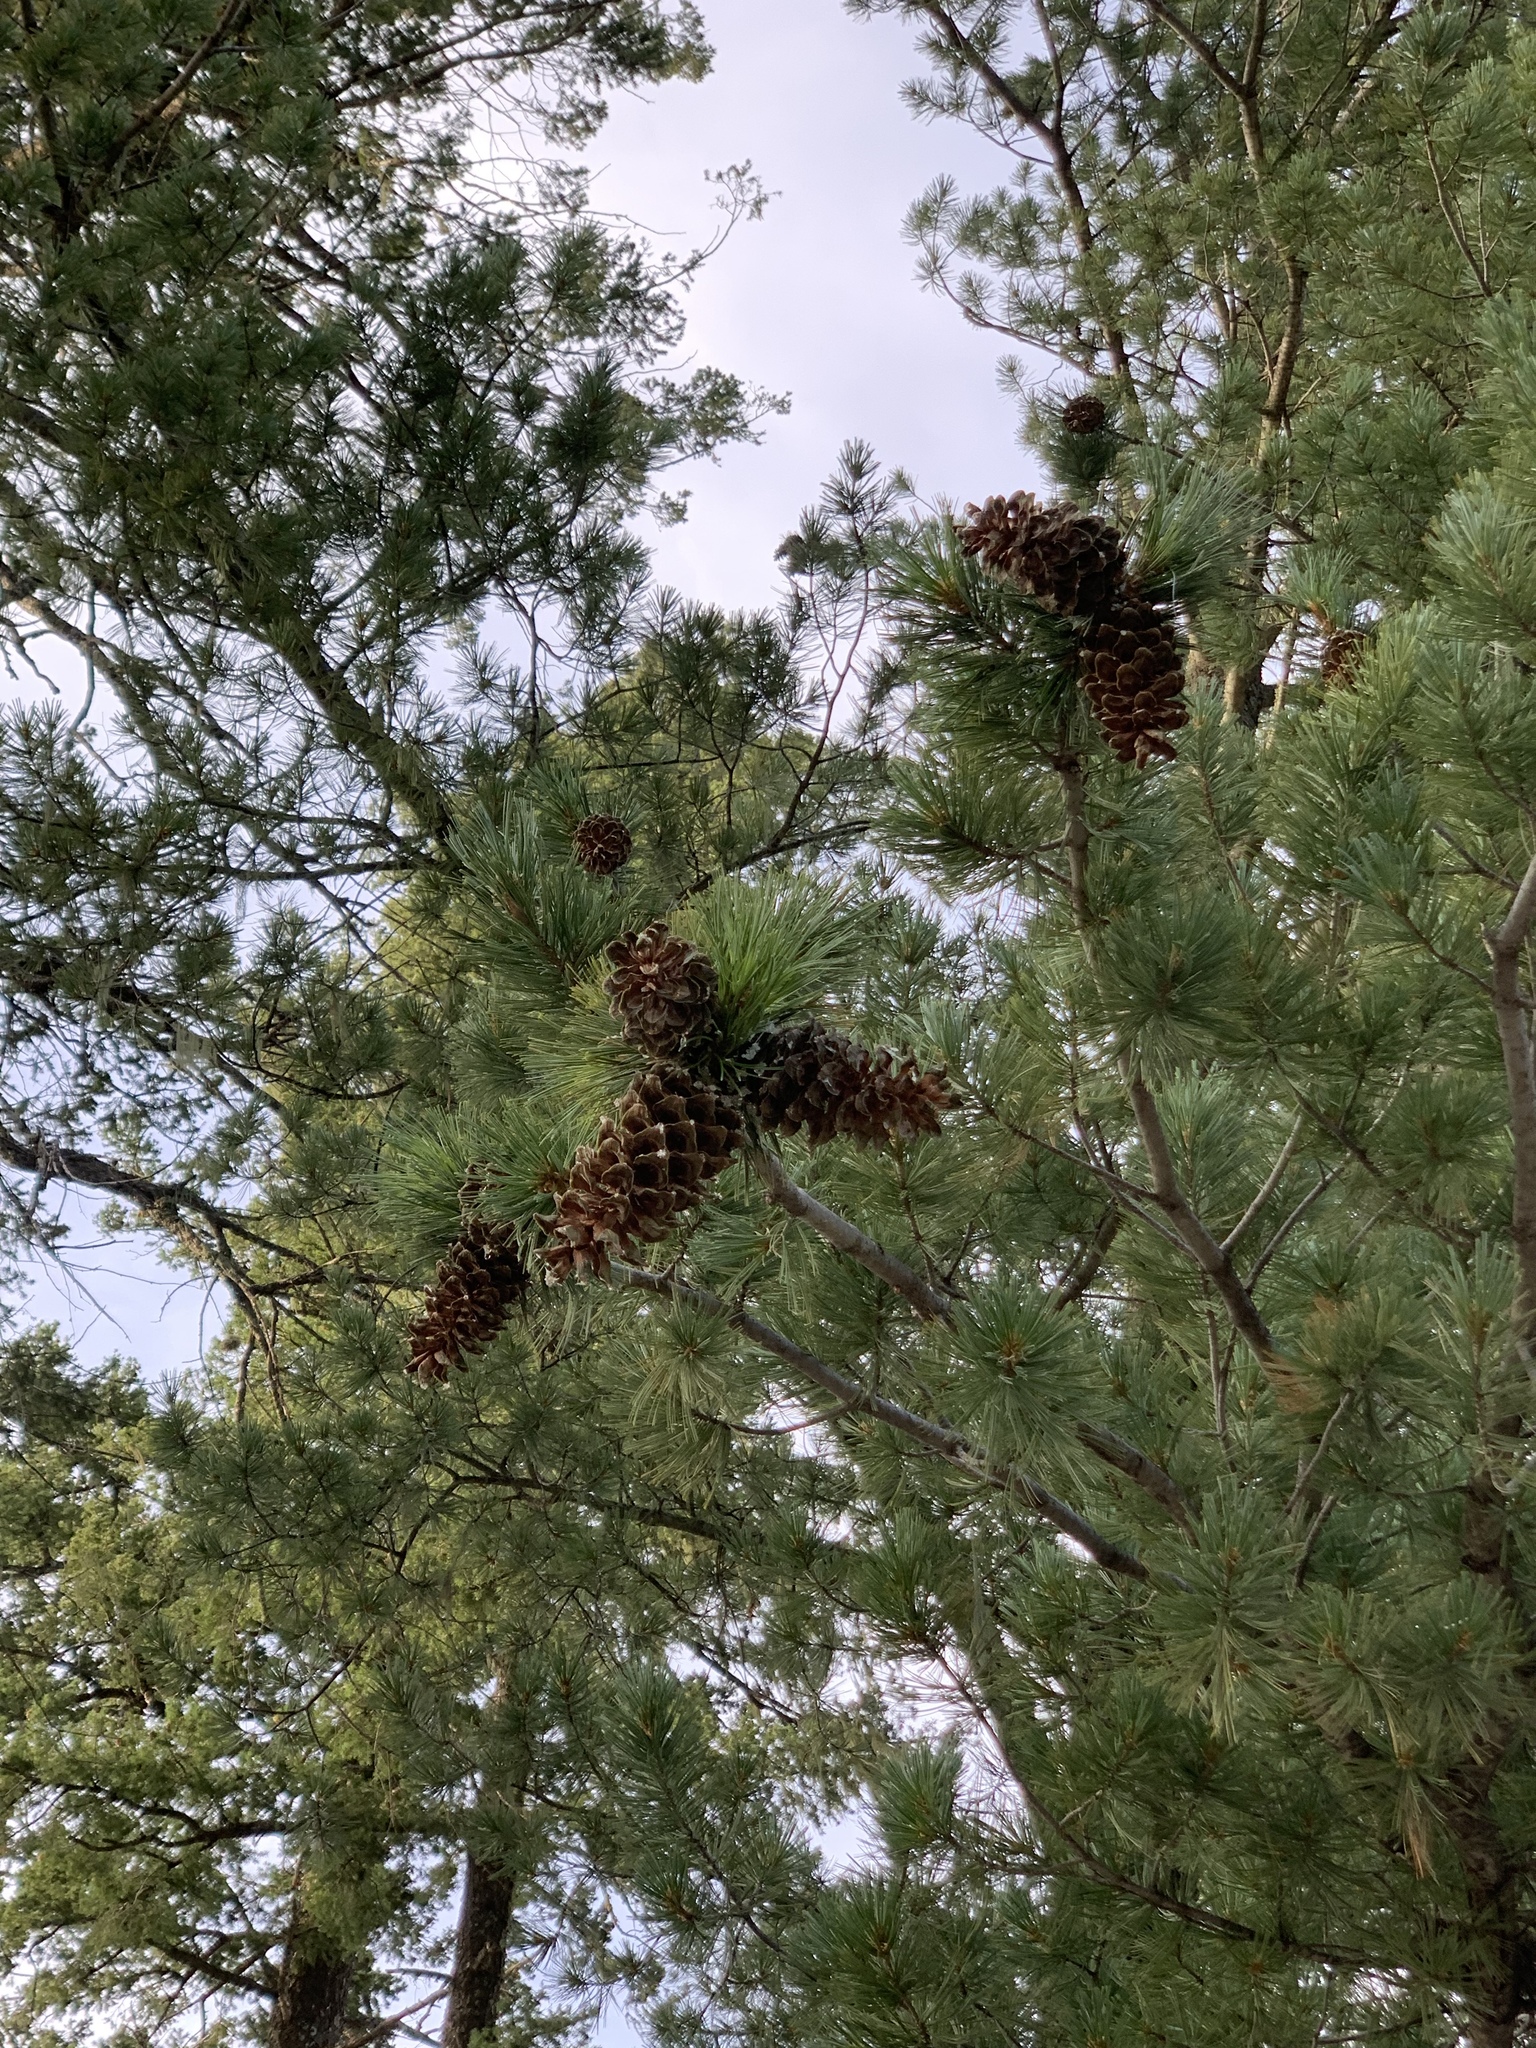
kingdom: Plantae
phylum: Tracheophyta
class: Pinopsida
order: Pinales
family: Pinaceae
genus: Pinus
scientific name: Pinus strobiformis
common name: Southwestern white pine
